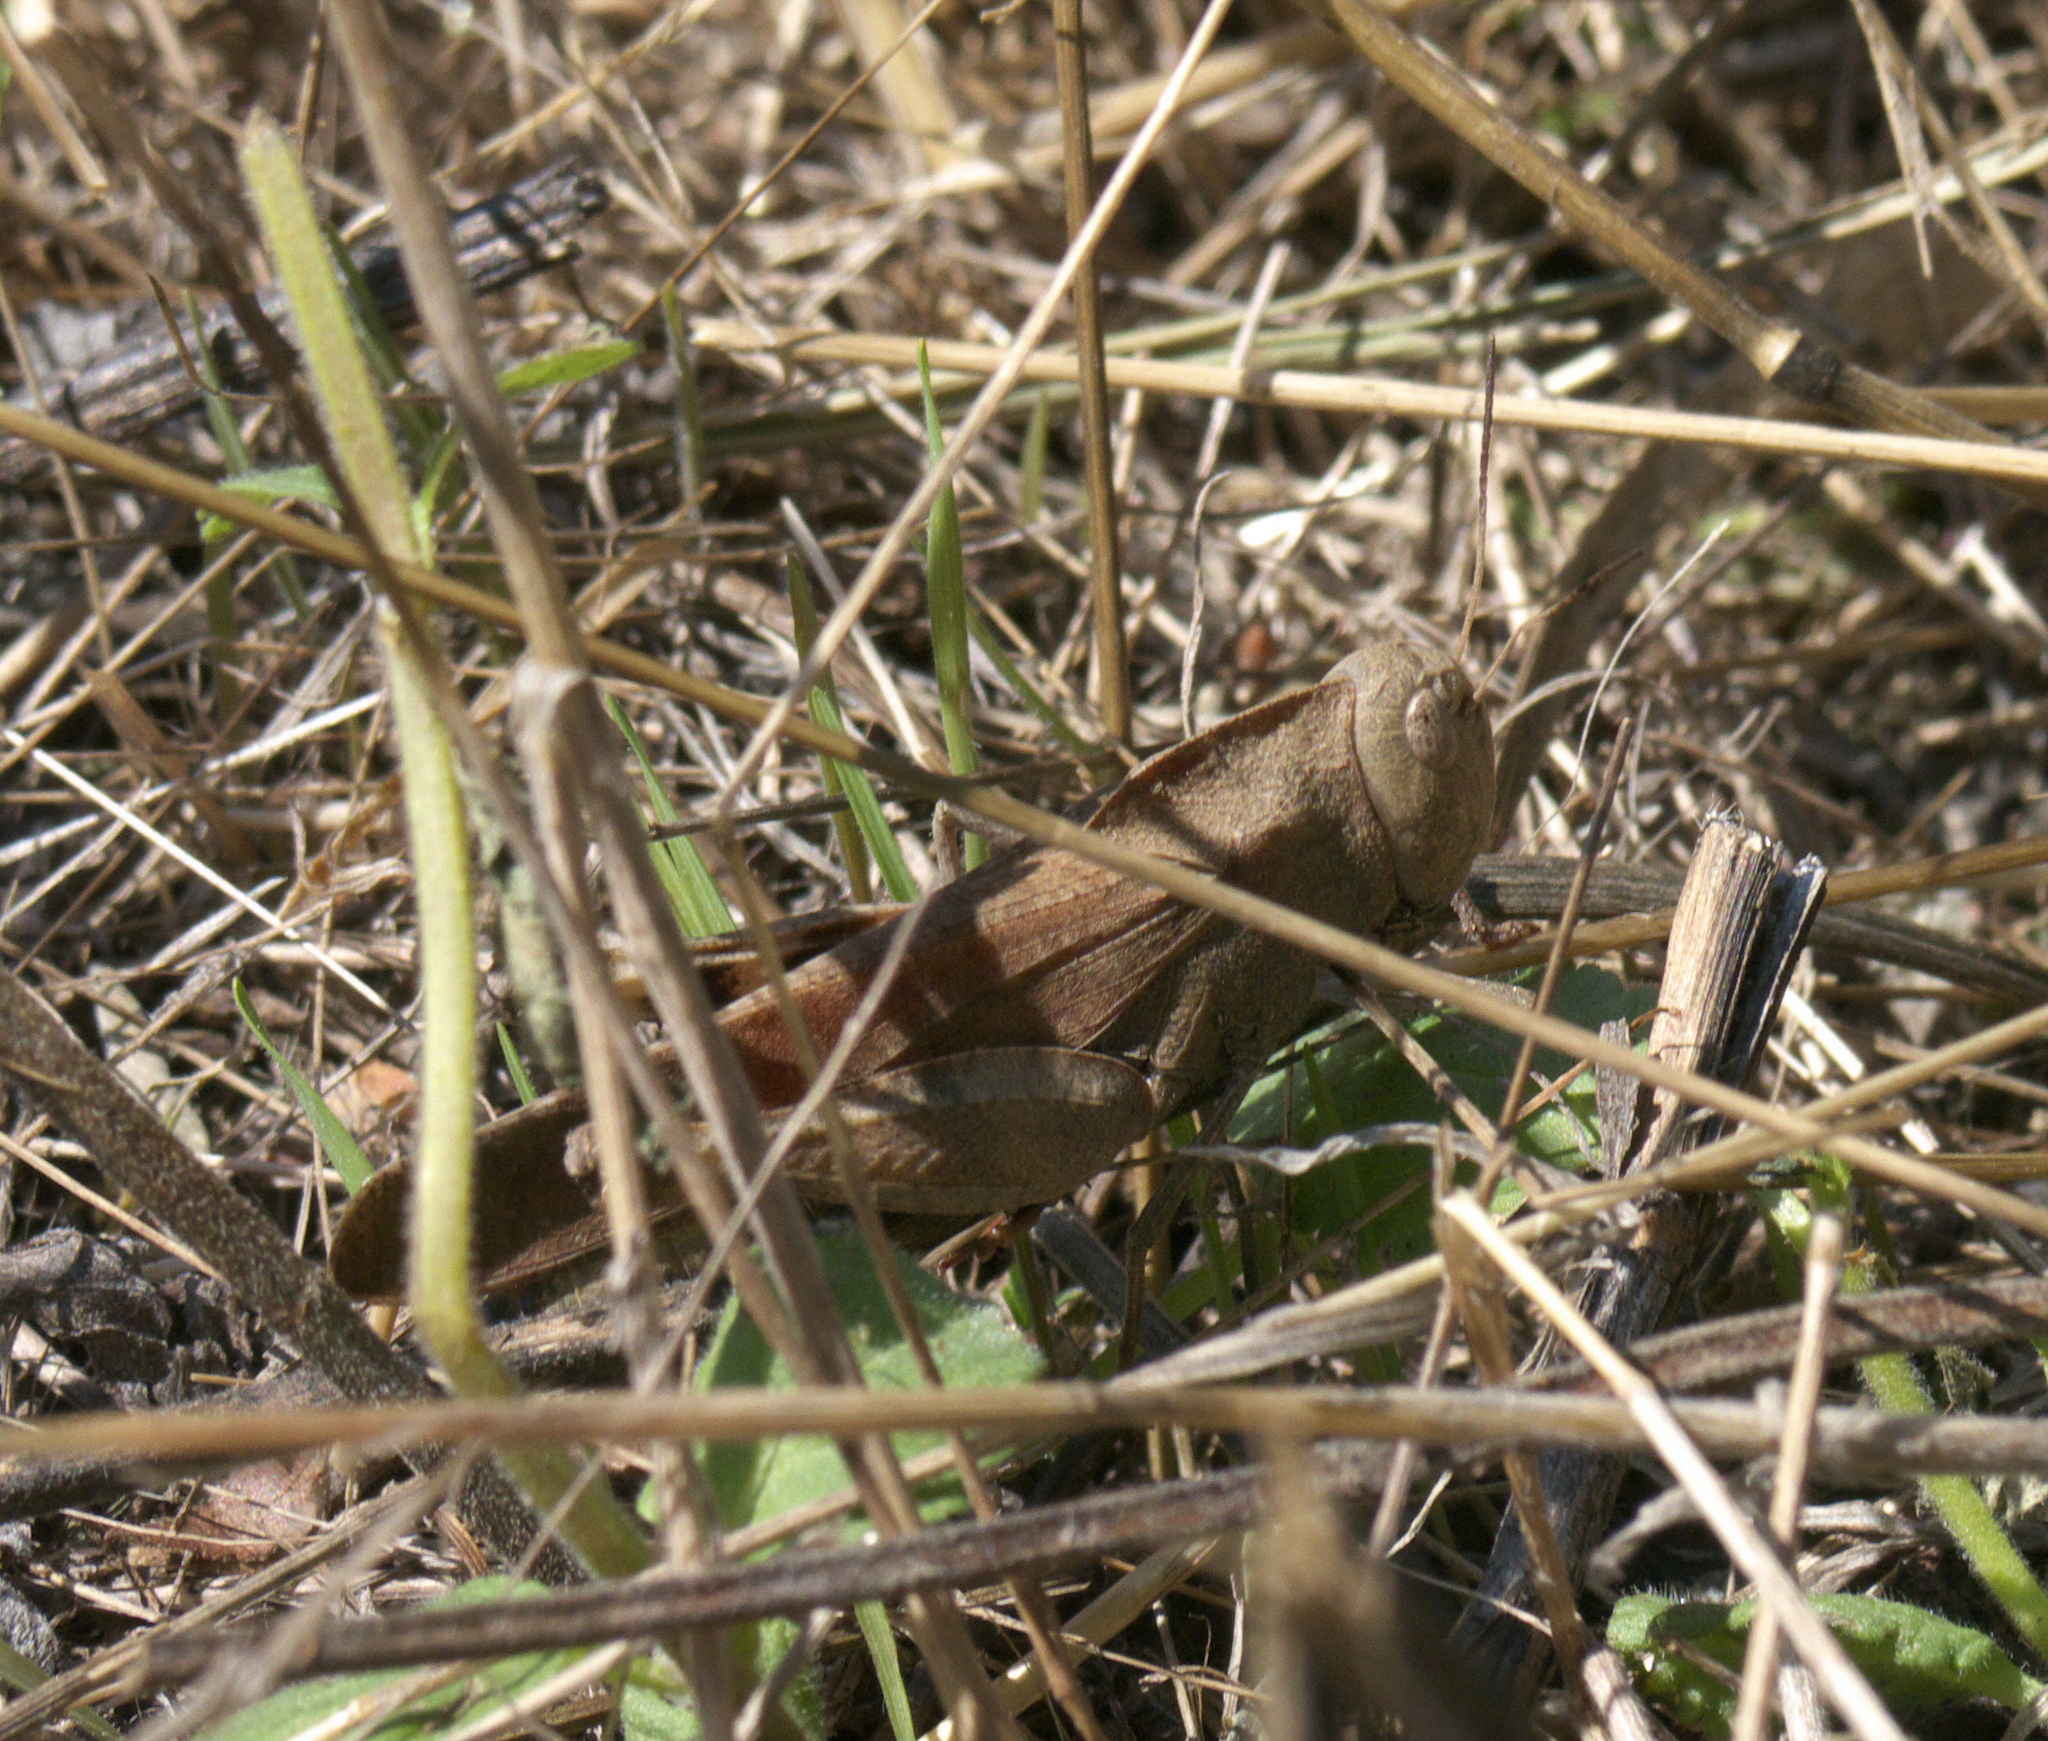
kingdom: Animalia
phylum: Arthropoda
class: Insecta
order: Orthoptera
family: Acrididae
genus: Arphia
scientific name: Arphia xanthoptera
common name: Autumn yellow-winged grasshopper
